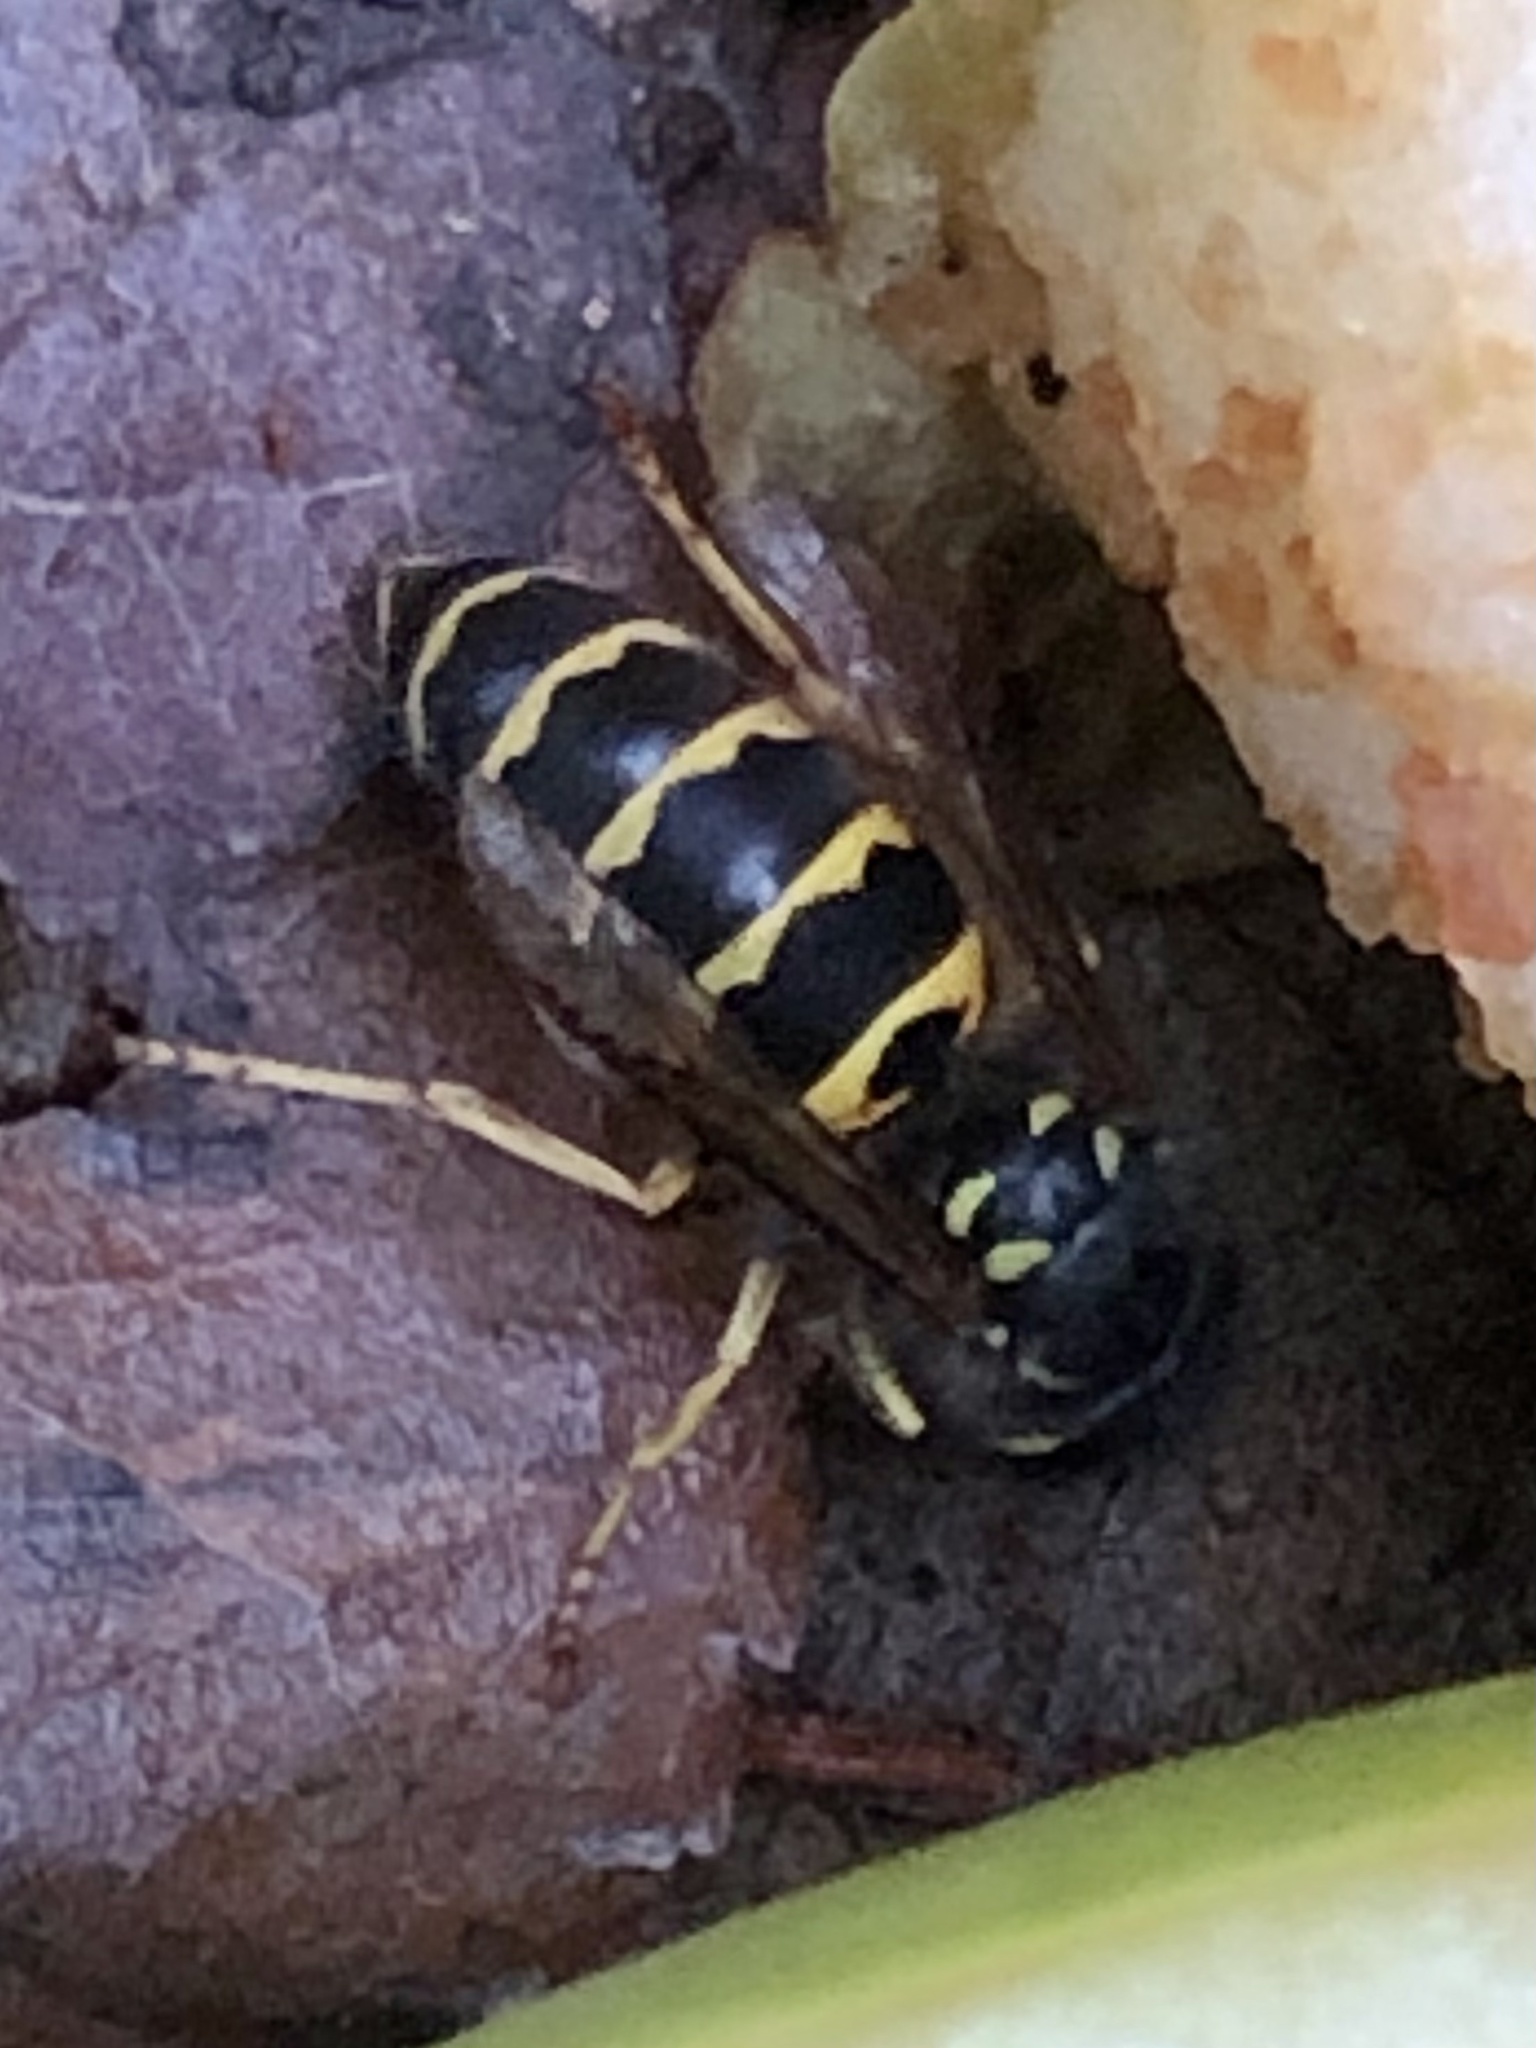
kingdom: Animalia
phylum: Arthropoda
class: Insecta
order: Hymenoptera
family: Vespidae
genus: Vespula
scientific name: Vespula alascensis
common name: Alaska yellowjacket
